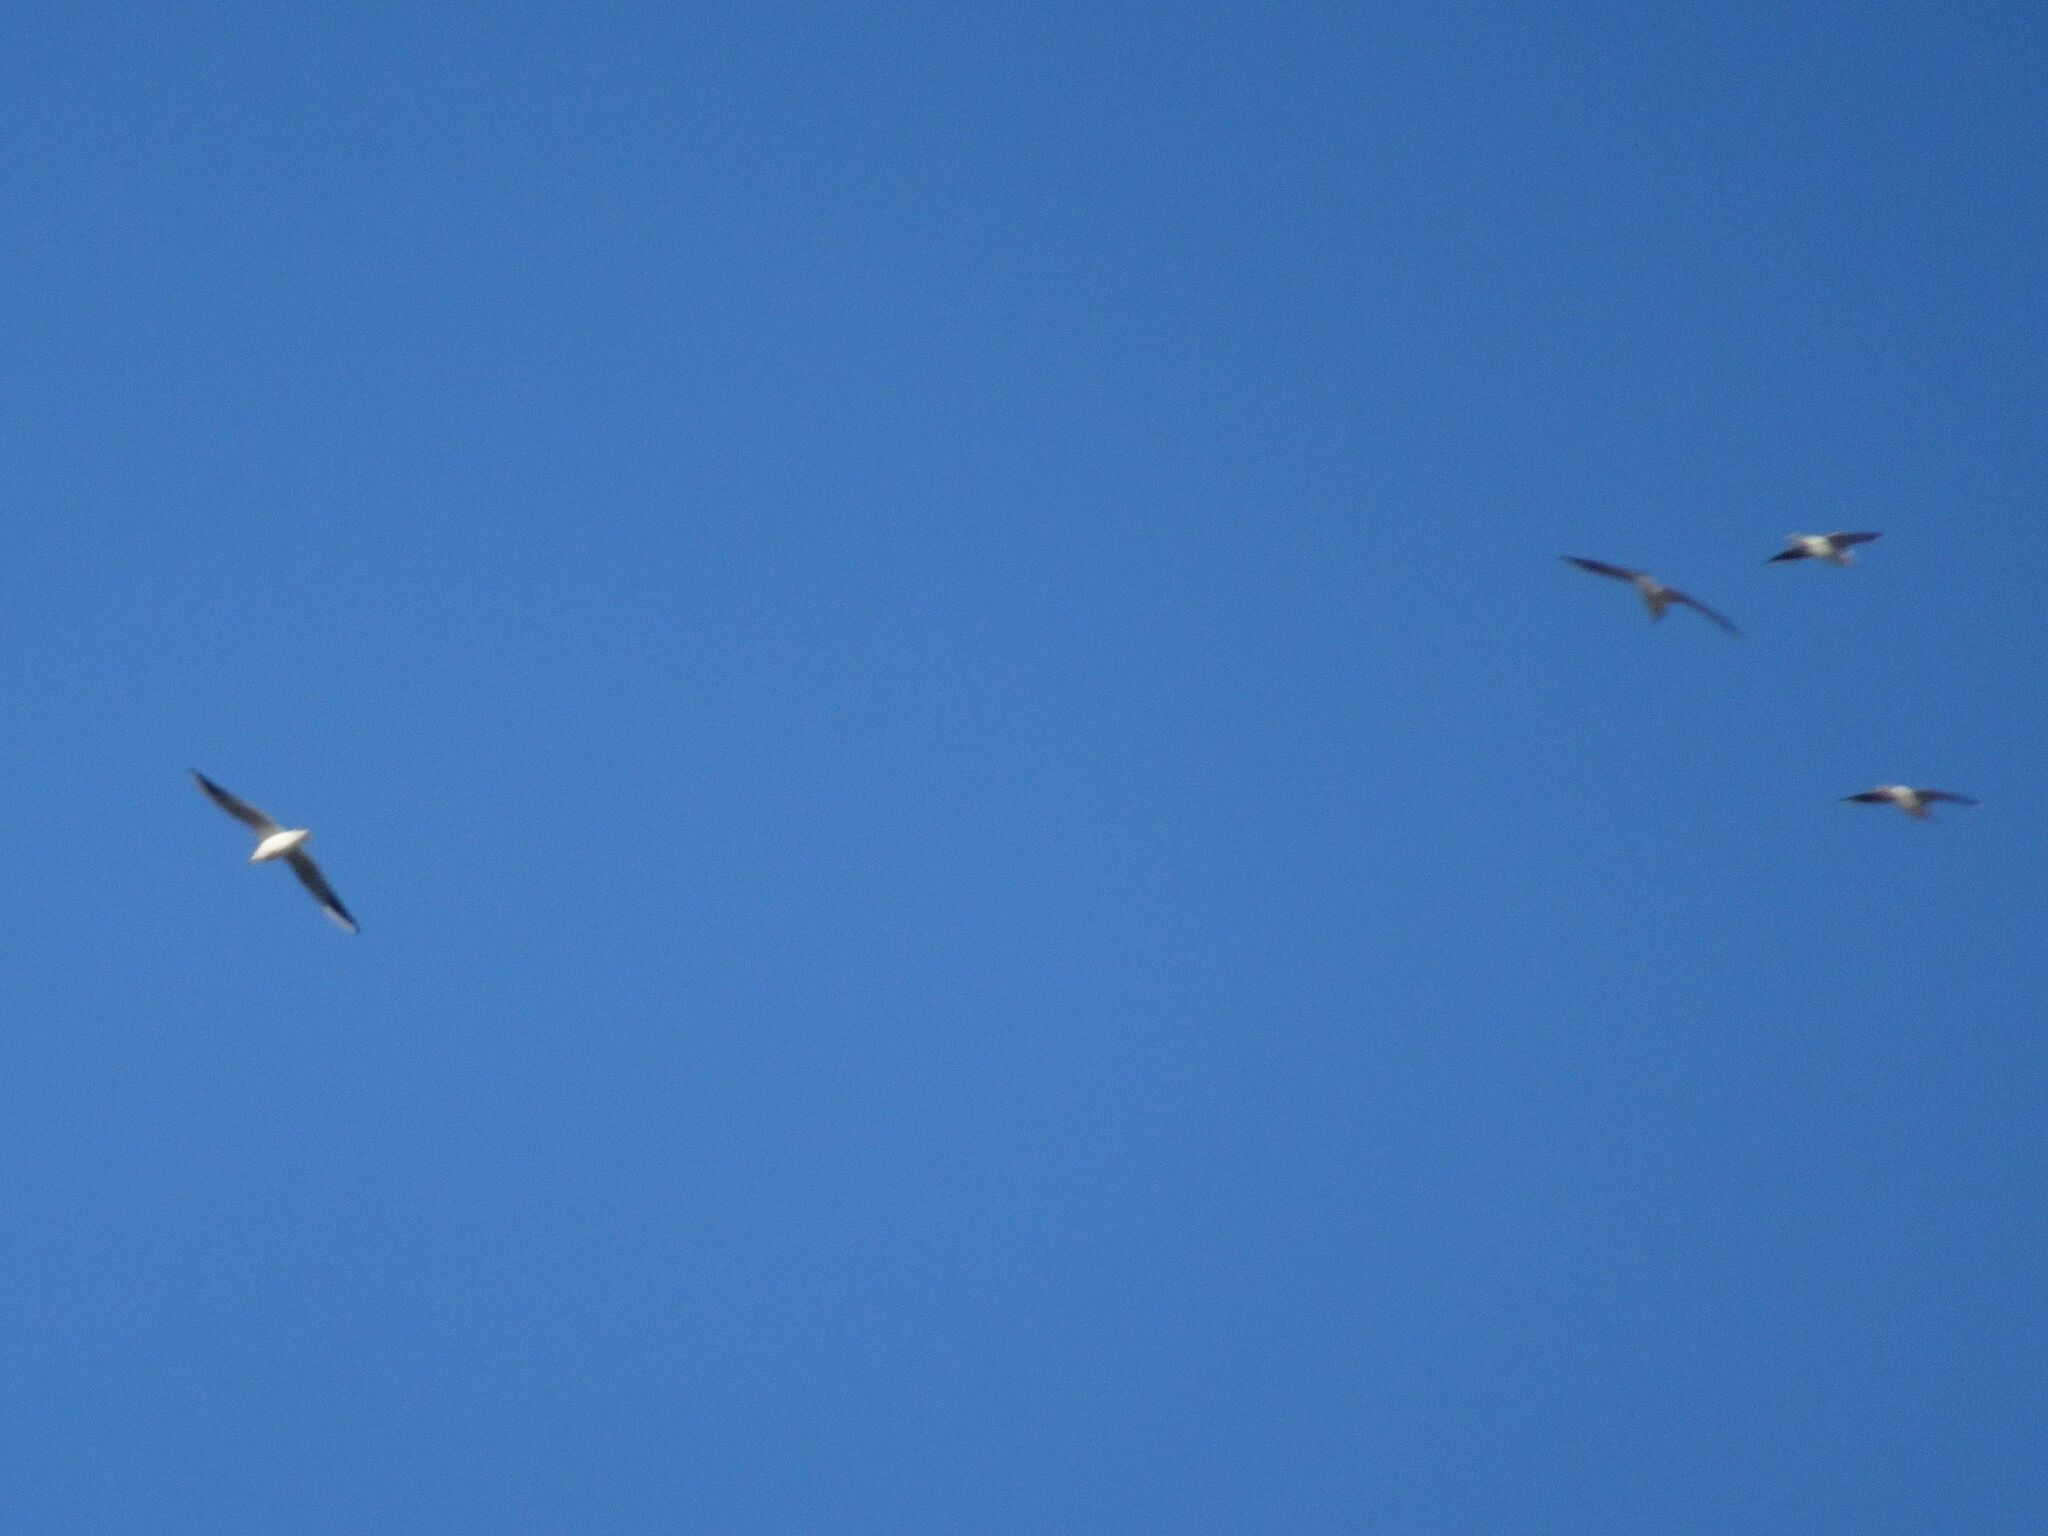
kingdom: Animalia
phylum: Chordata
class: Aves
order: Charadriiformes
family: Laridae
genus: Chroicocephalus
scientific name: Chroicocephalus ridibundus
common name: Black-headed gull
